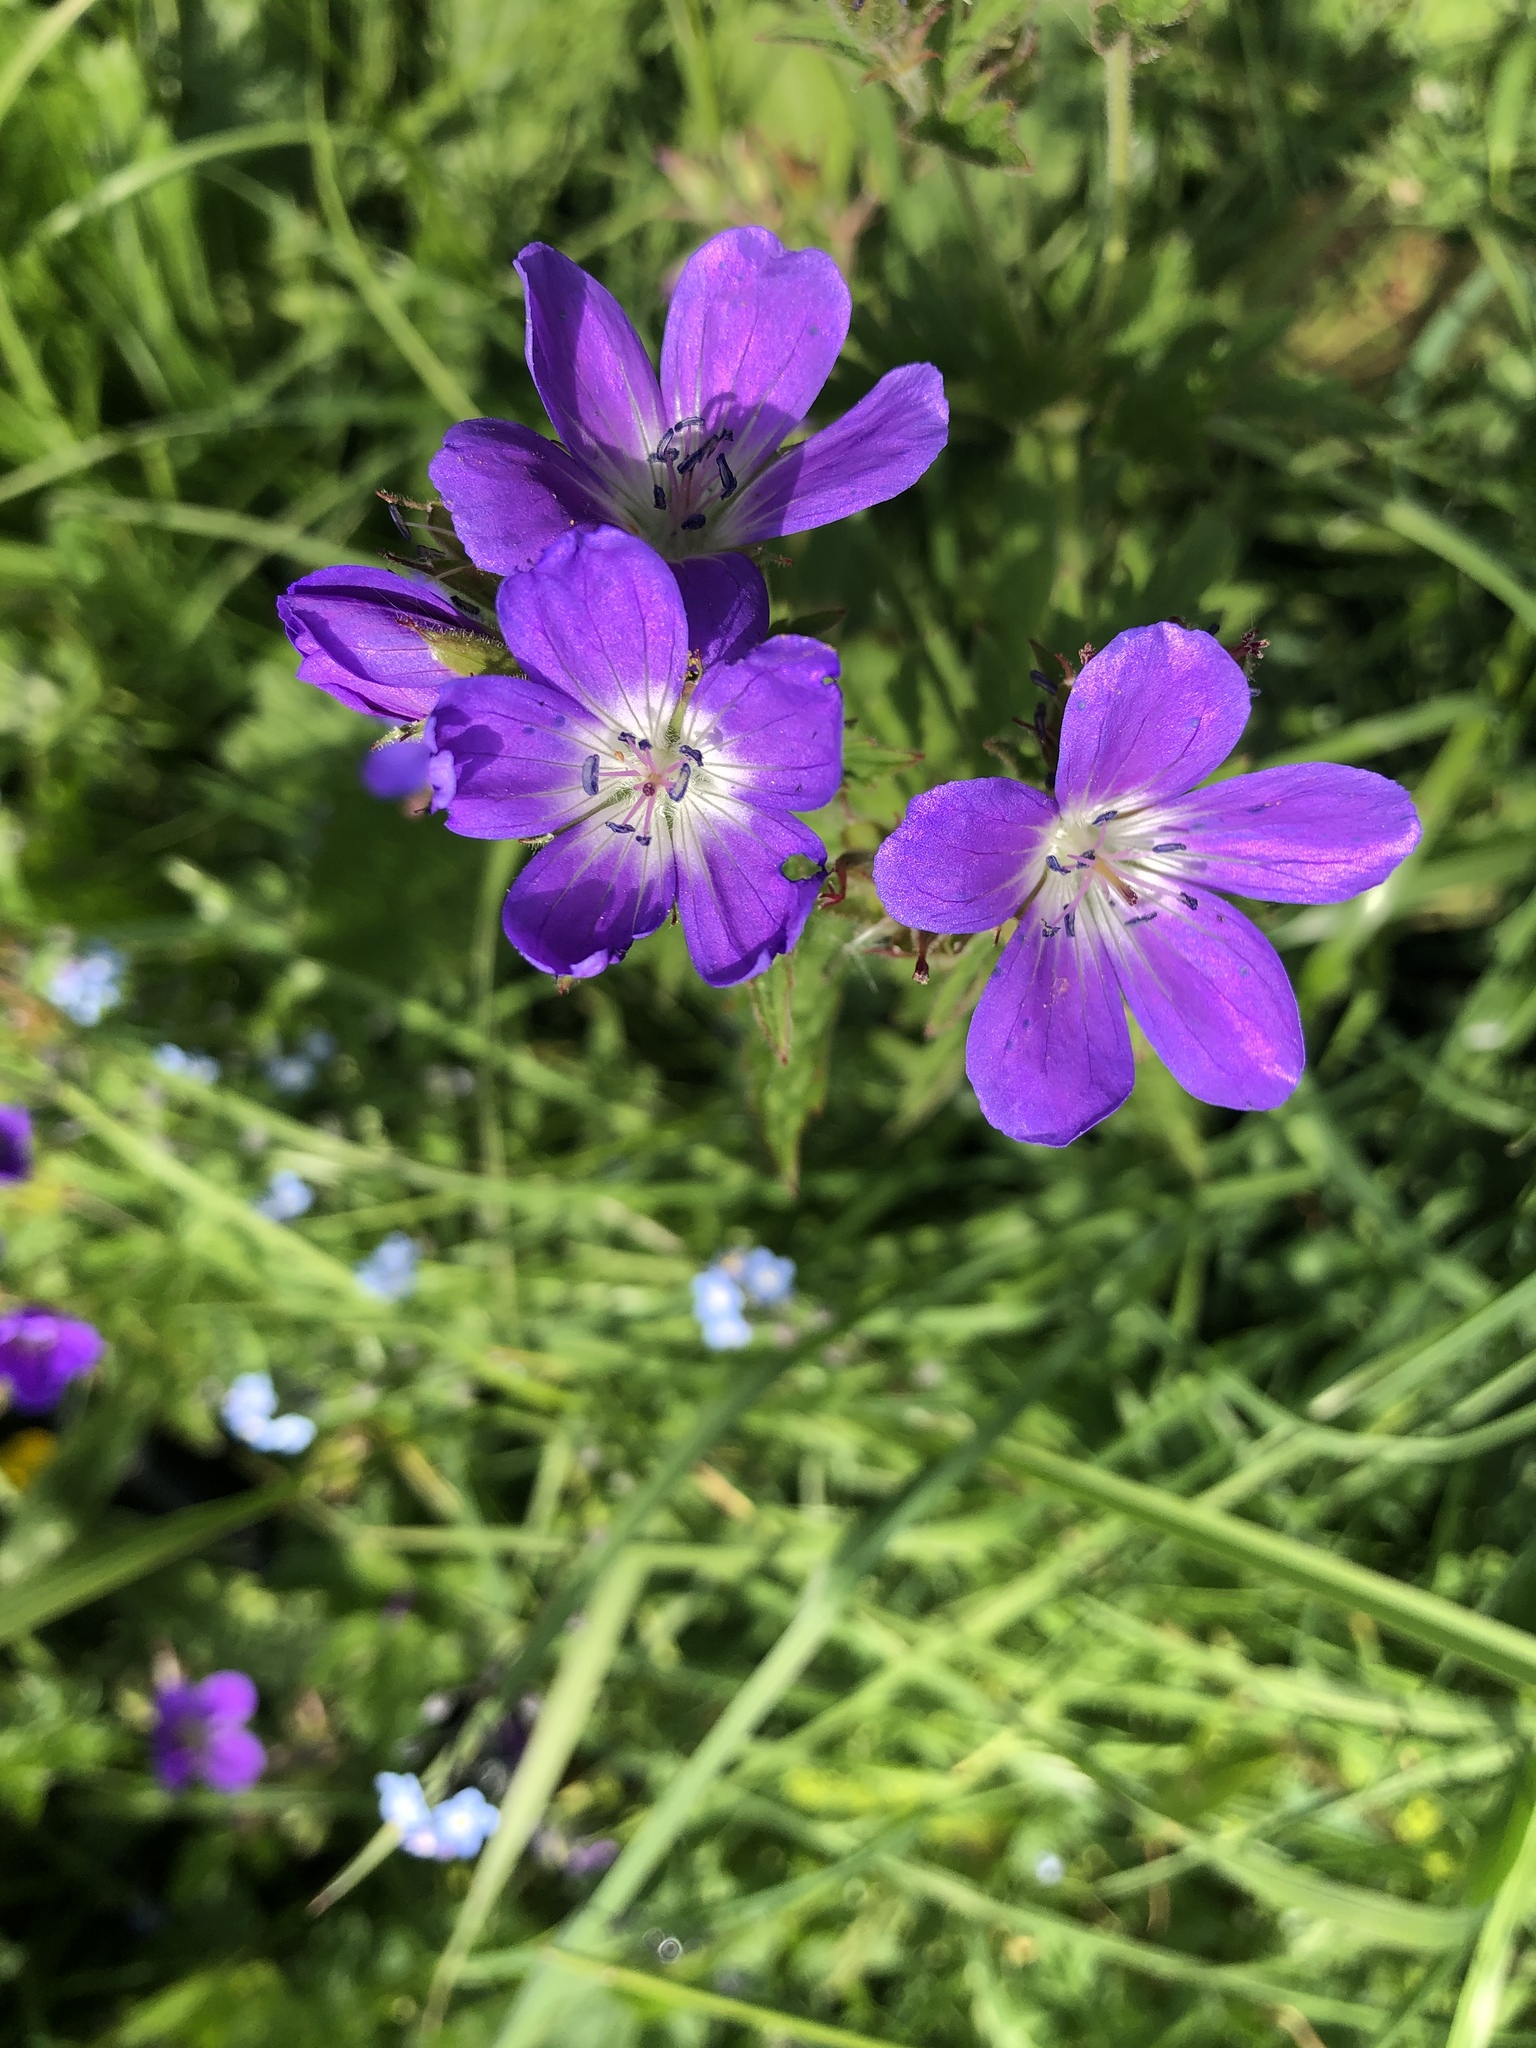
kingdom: Plantae
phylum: Tracheophyta
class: Magnoliopsida
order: Geraniales
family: Geraniaceae
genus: Geranium
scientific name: Geranium sylvaticum
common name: Wood crane's-bill
